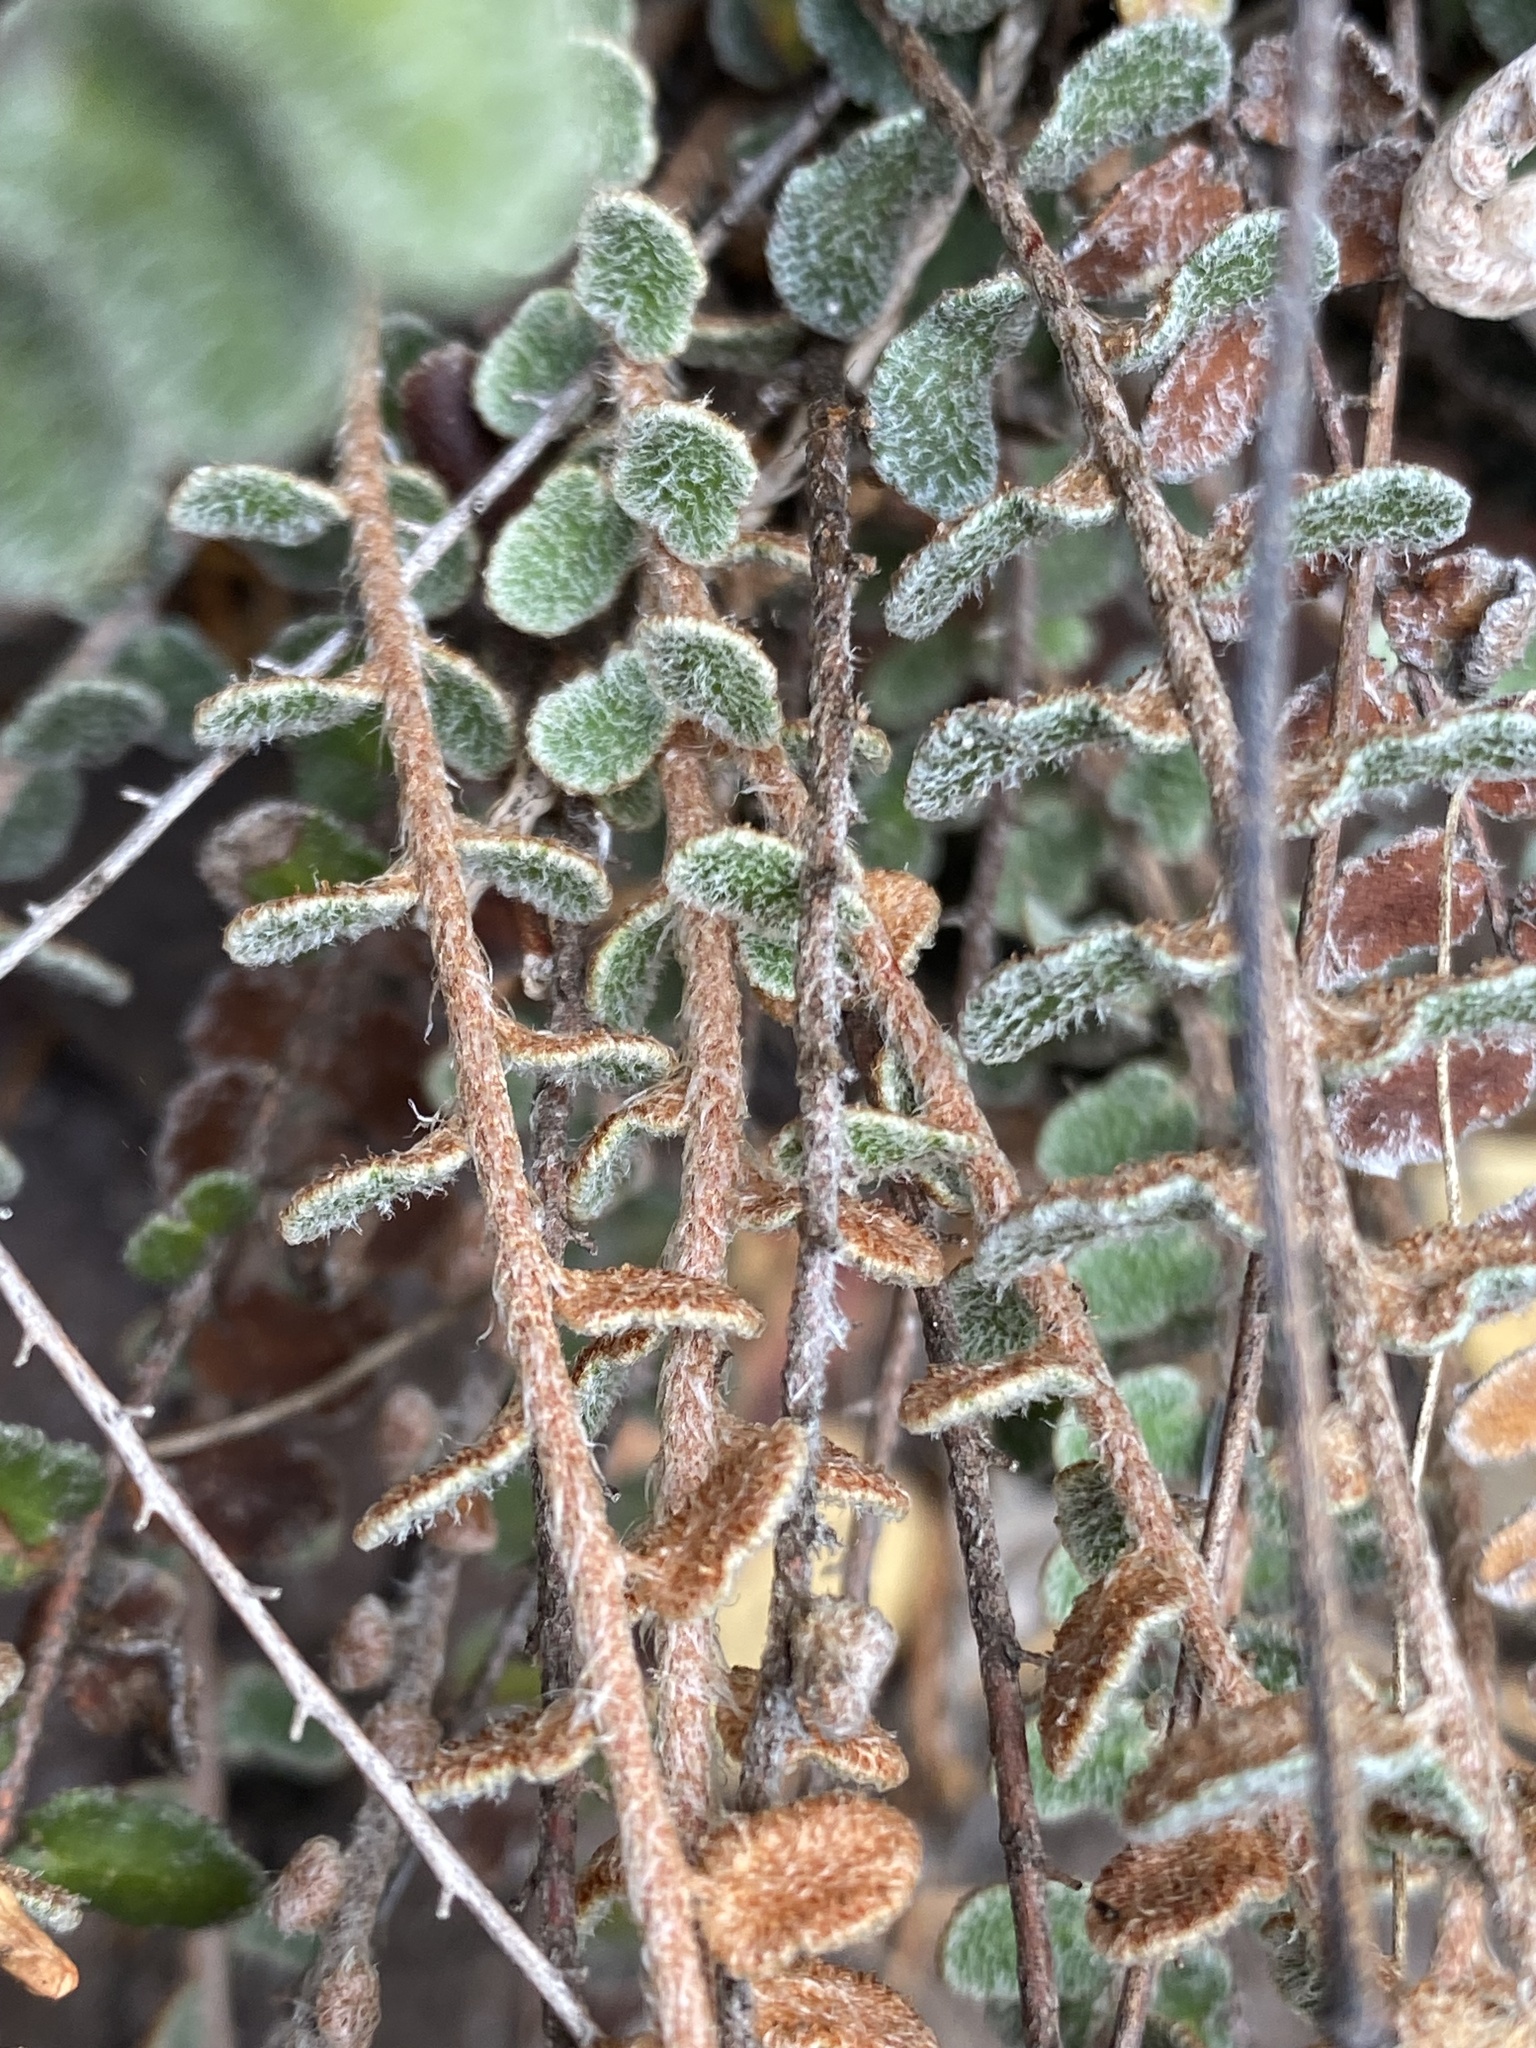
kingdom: Plantae
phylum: Tracheophyta
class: Polypodiopsida
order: Polypodiales
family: Pteridaceae
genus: Astrolepis
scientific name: Astrolepis cochisensis
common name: Scaly cloak fern
